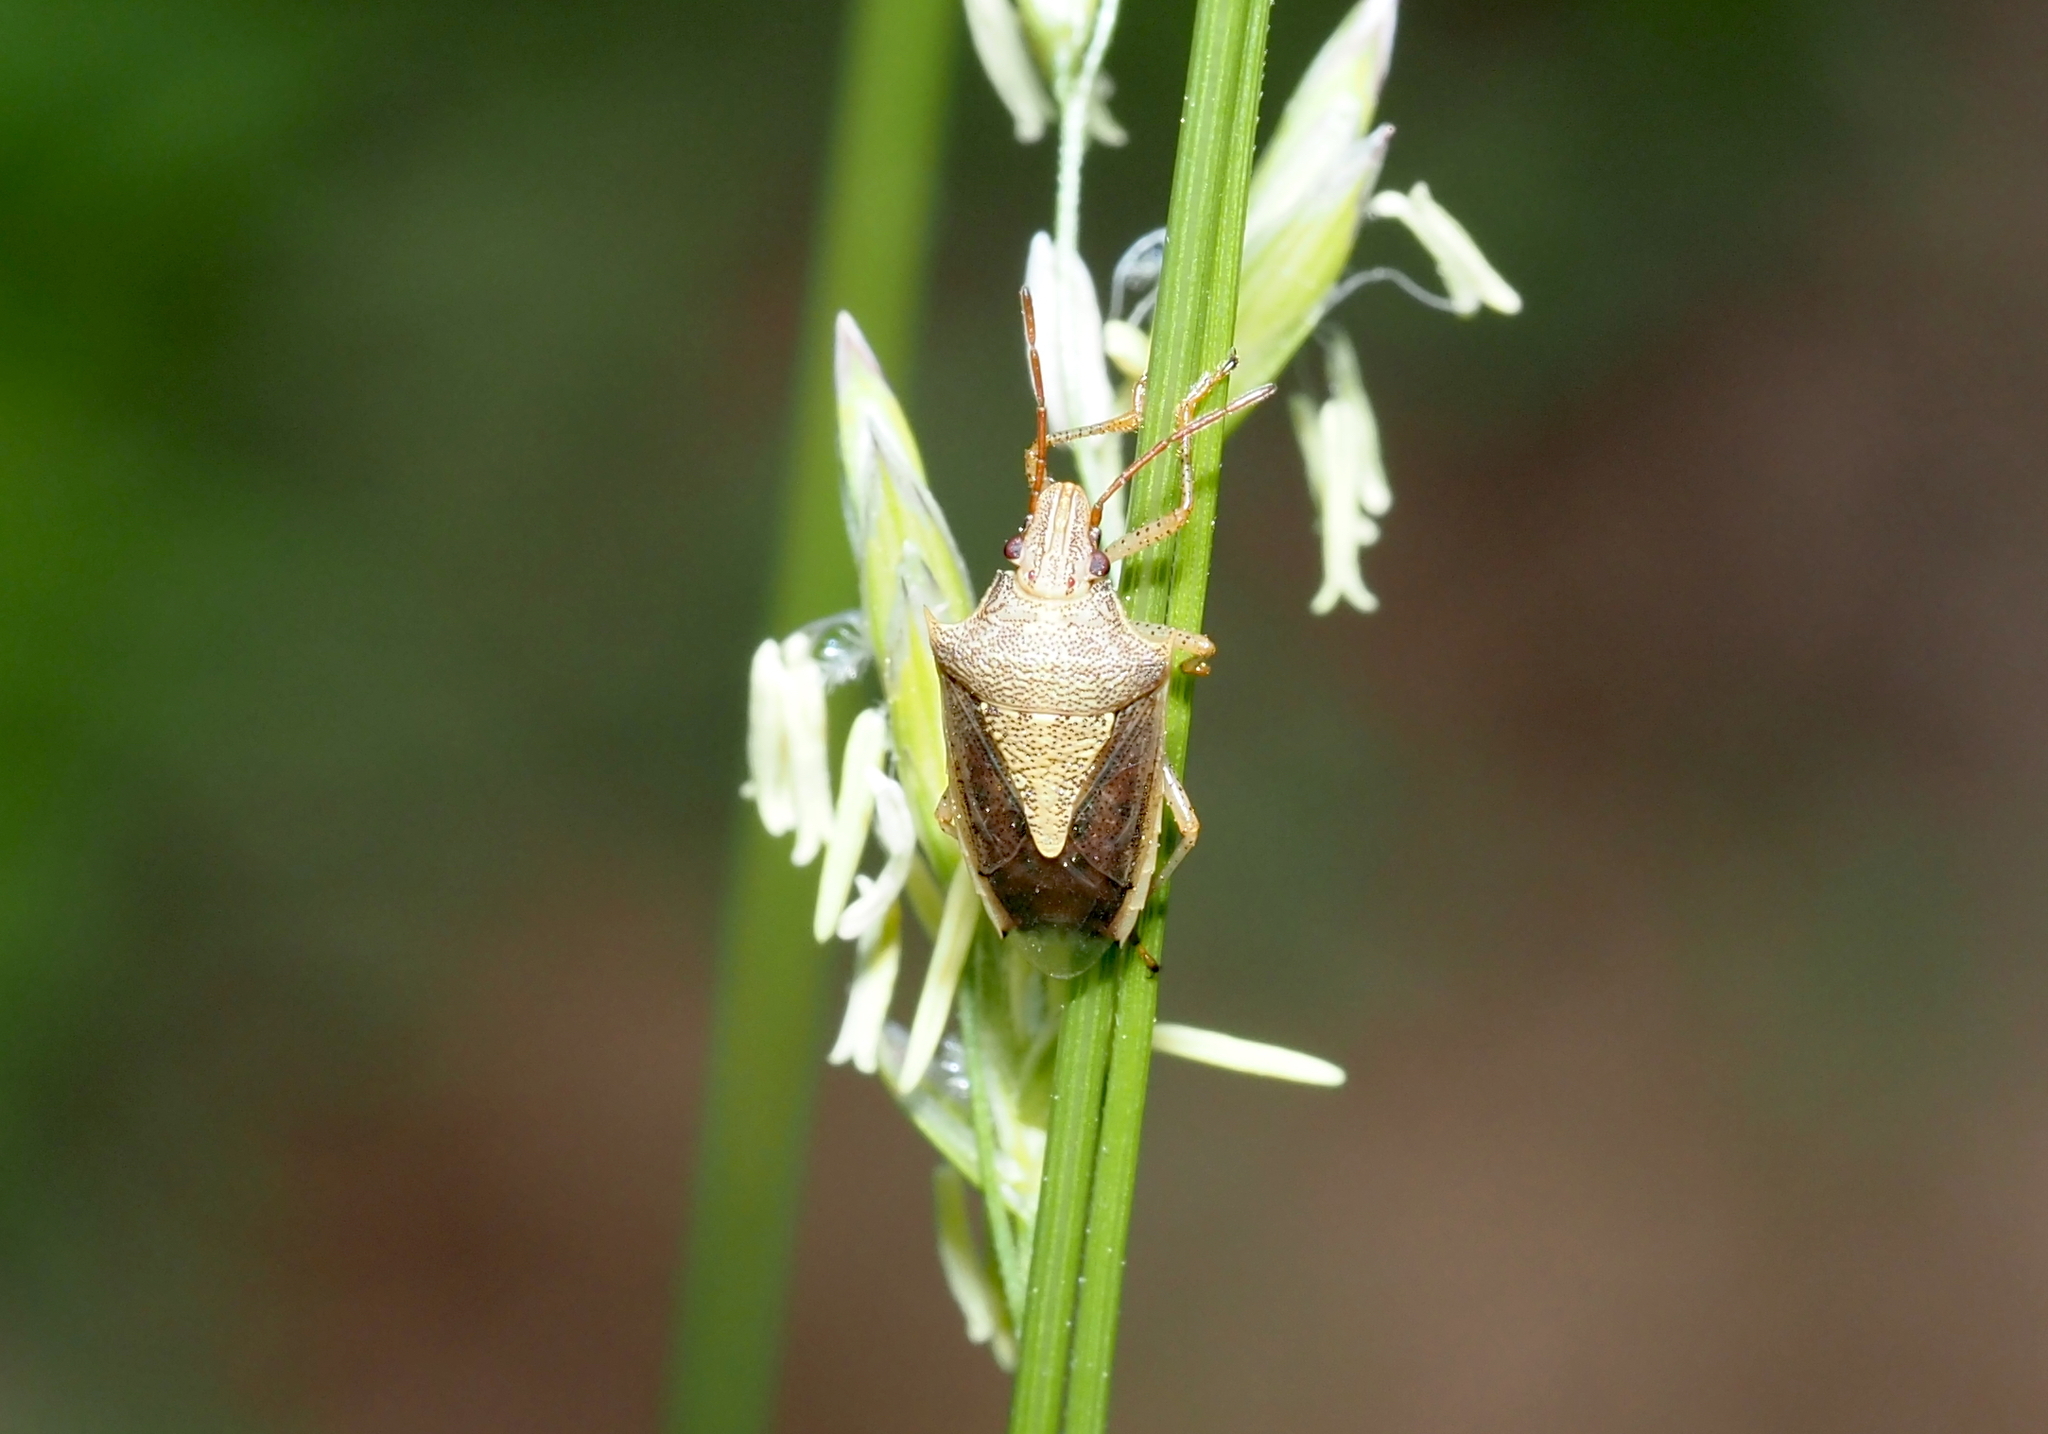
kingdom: Animalia
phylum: Arthropoda
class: Insecta
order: Hemiptera
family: Pentatomidae
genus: Oebalus
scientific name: Oebalus pugnax
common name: Rice stink bug
